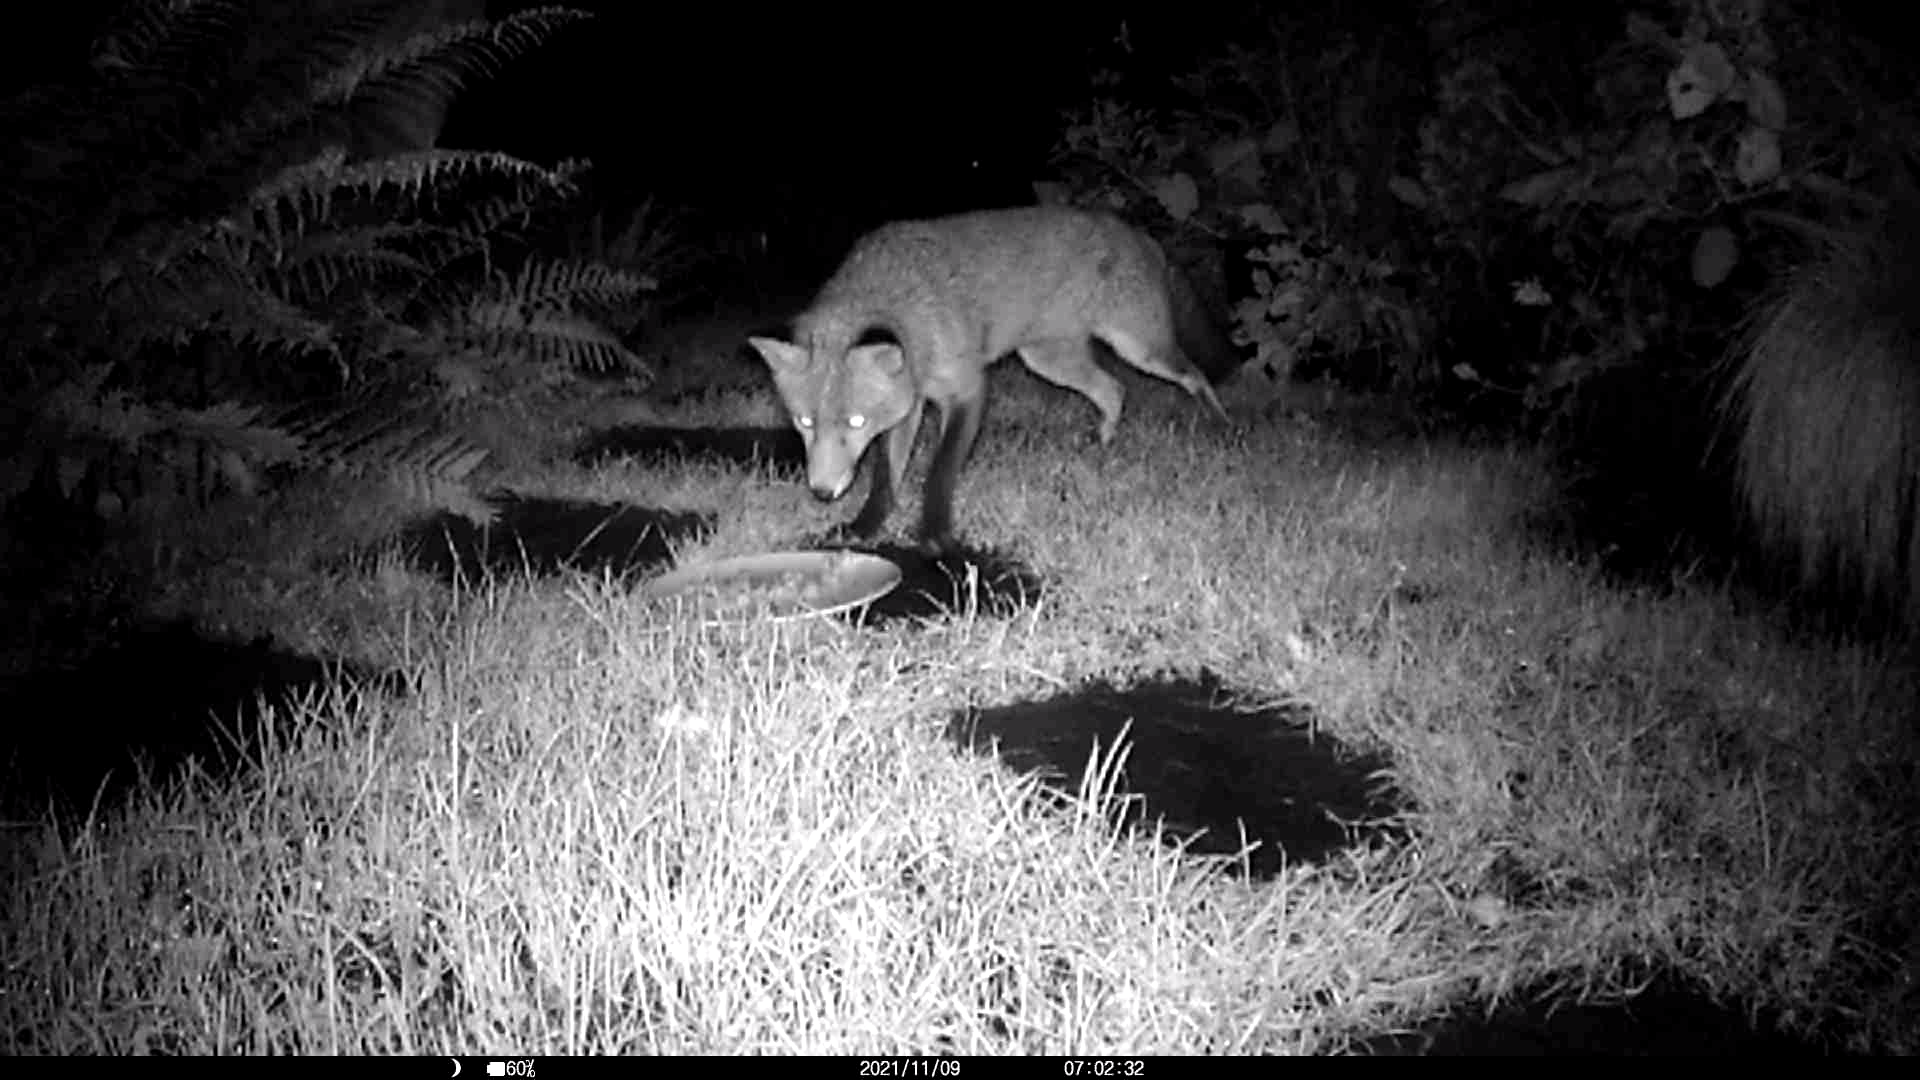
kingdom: Animalia
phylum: Chordata
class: Mammalia
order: Carnivora
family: Canidae
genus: Vulpes
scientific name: Vulpes vulpes
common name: Red fox
